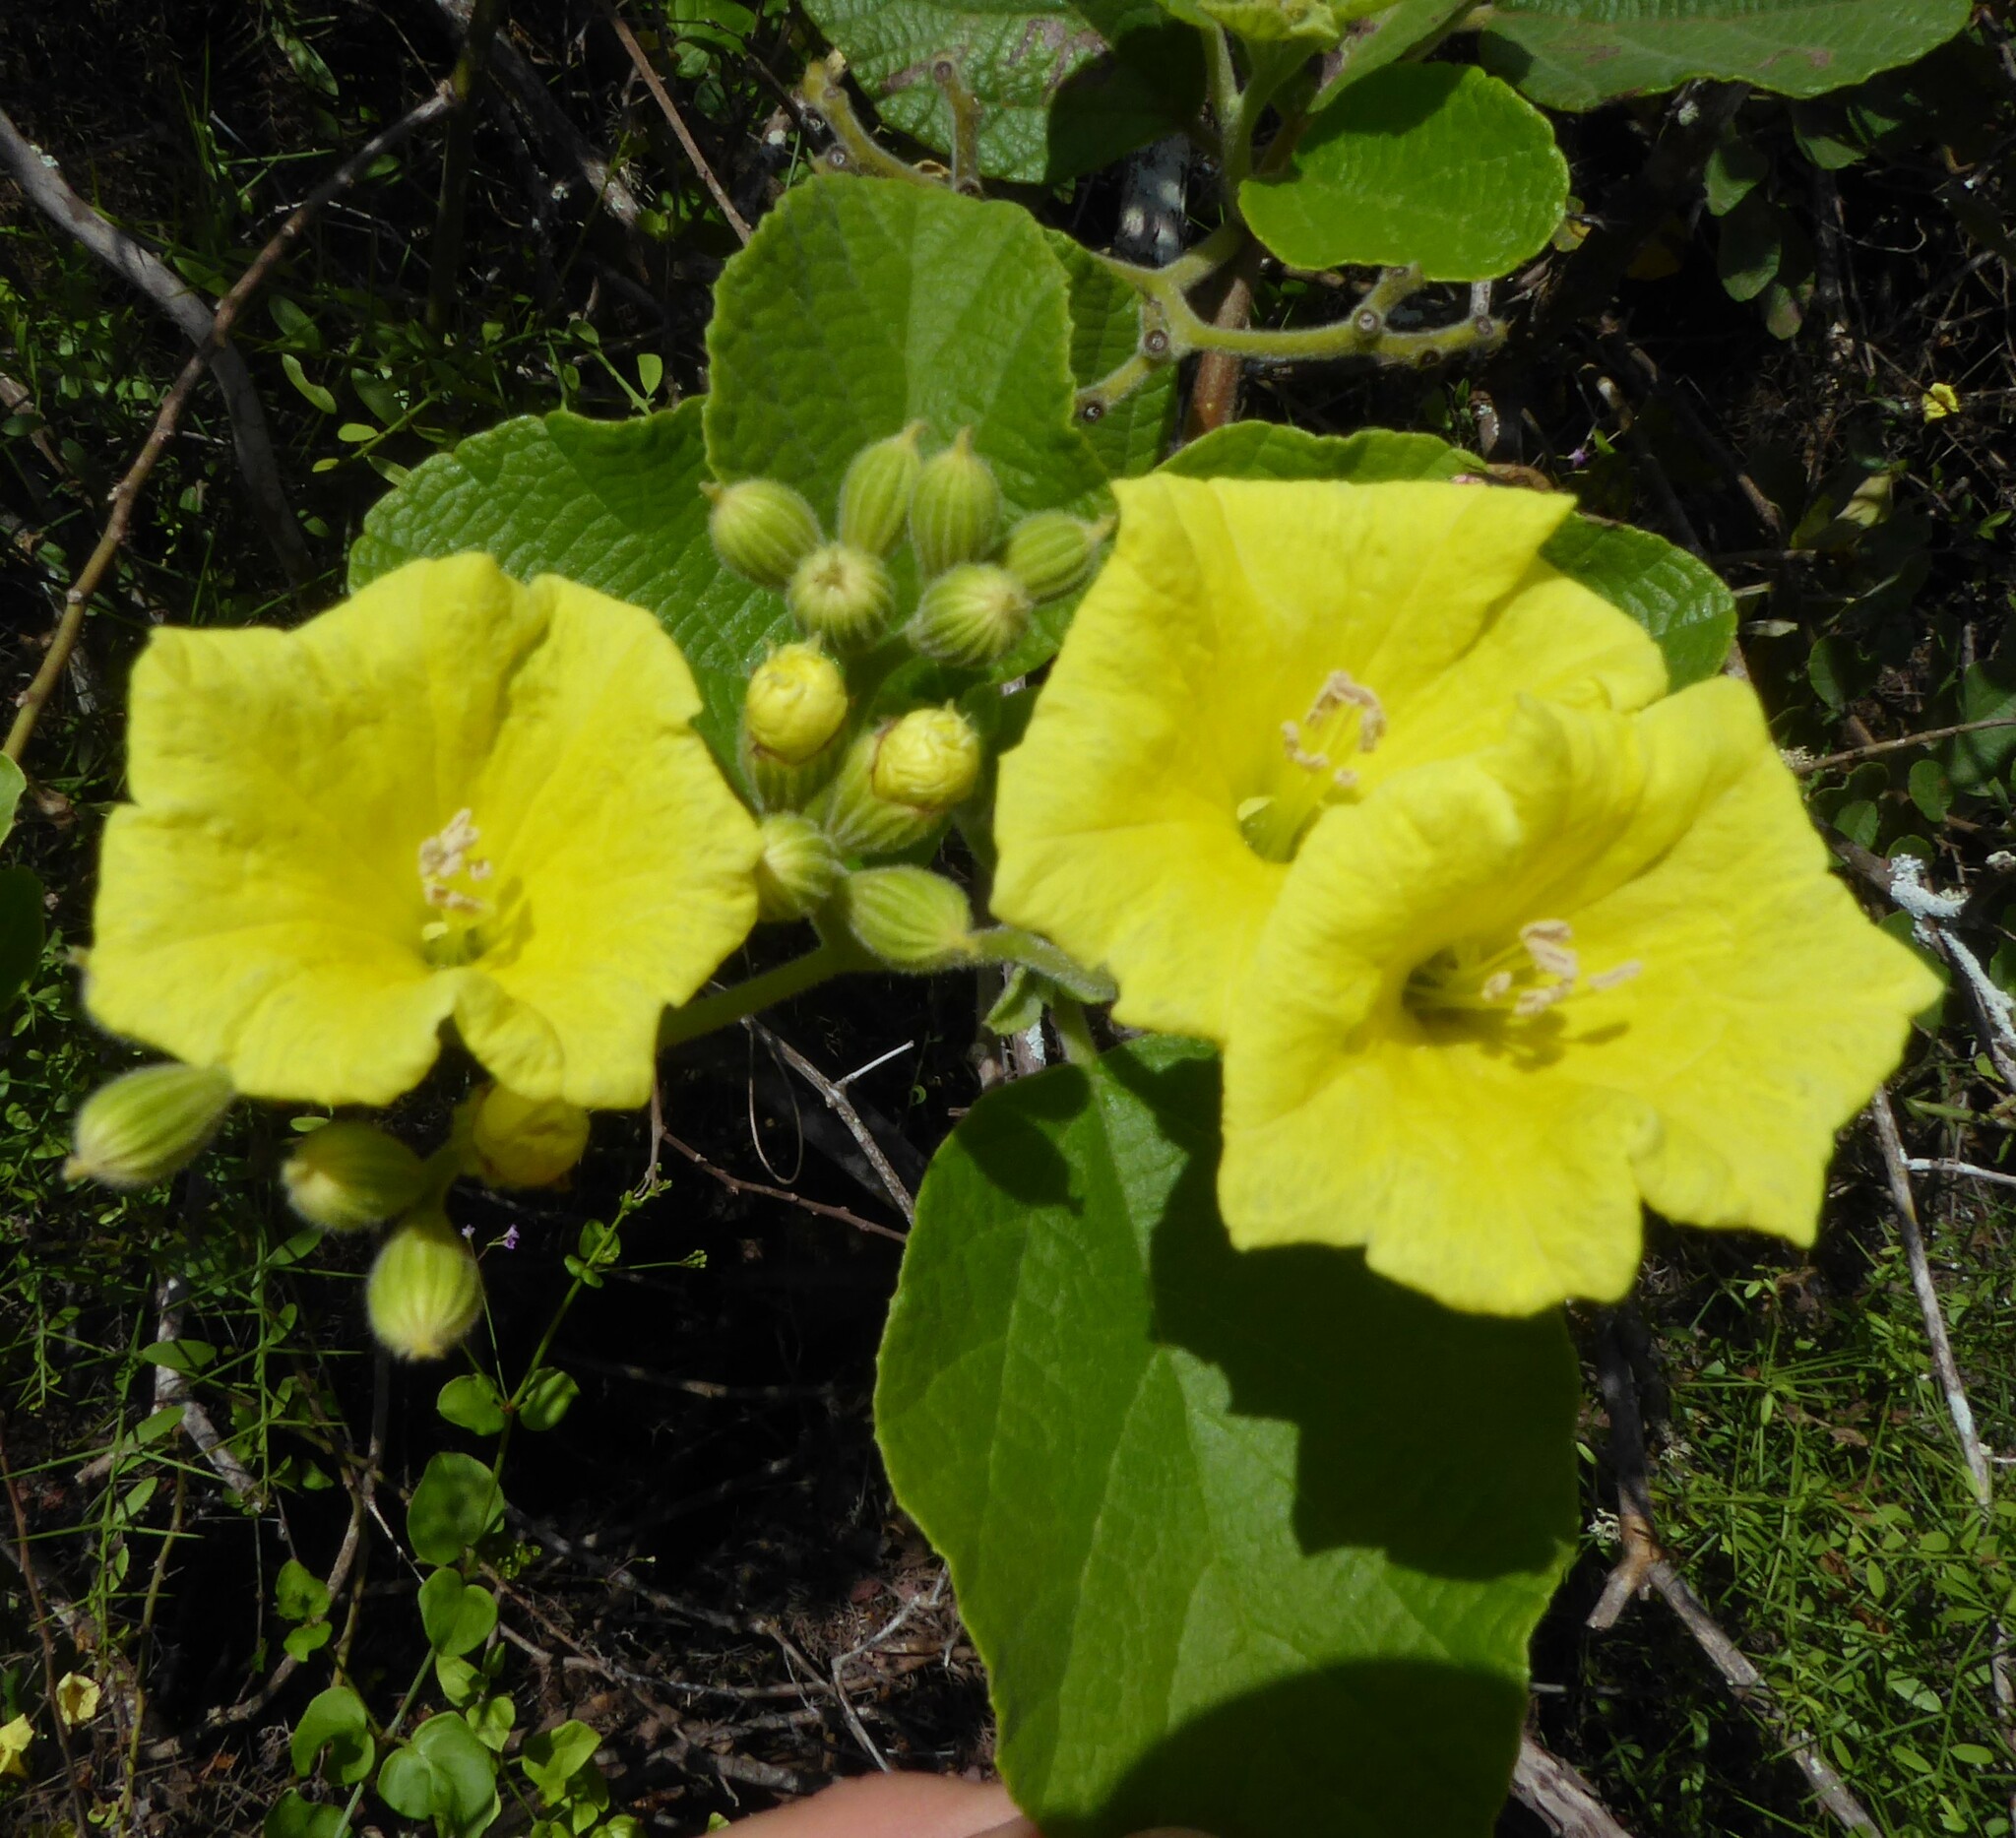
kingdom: Plantae
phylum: Tracheophyta
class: Magnoliopsida
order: Boraginales
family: Cordiaceae
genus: Cordia
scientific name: Cordia lutea
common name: Yellow geiger
